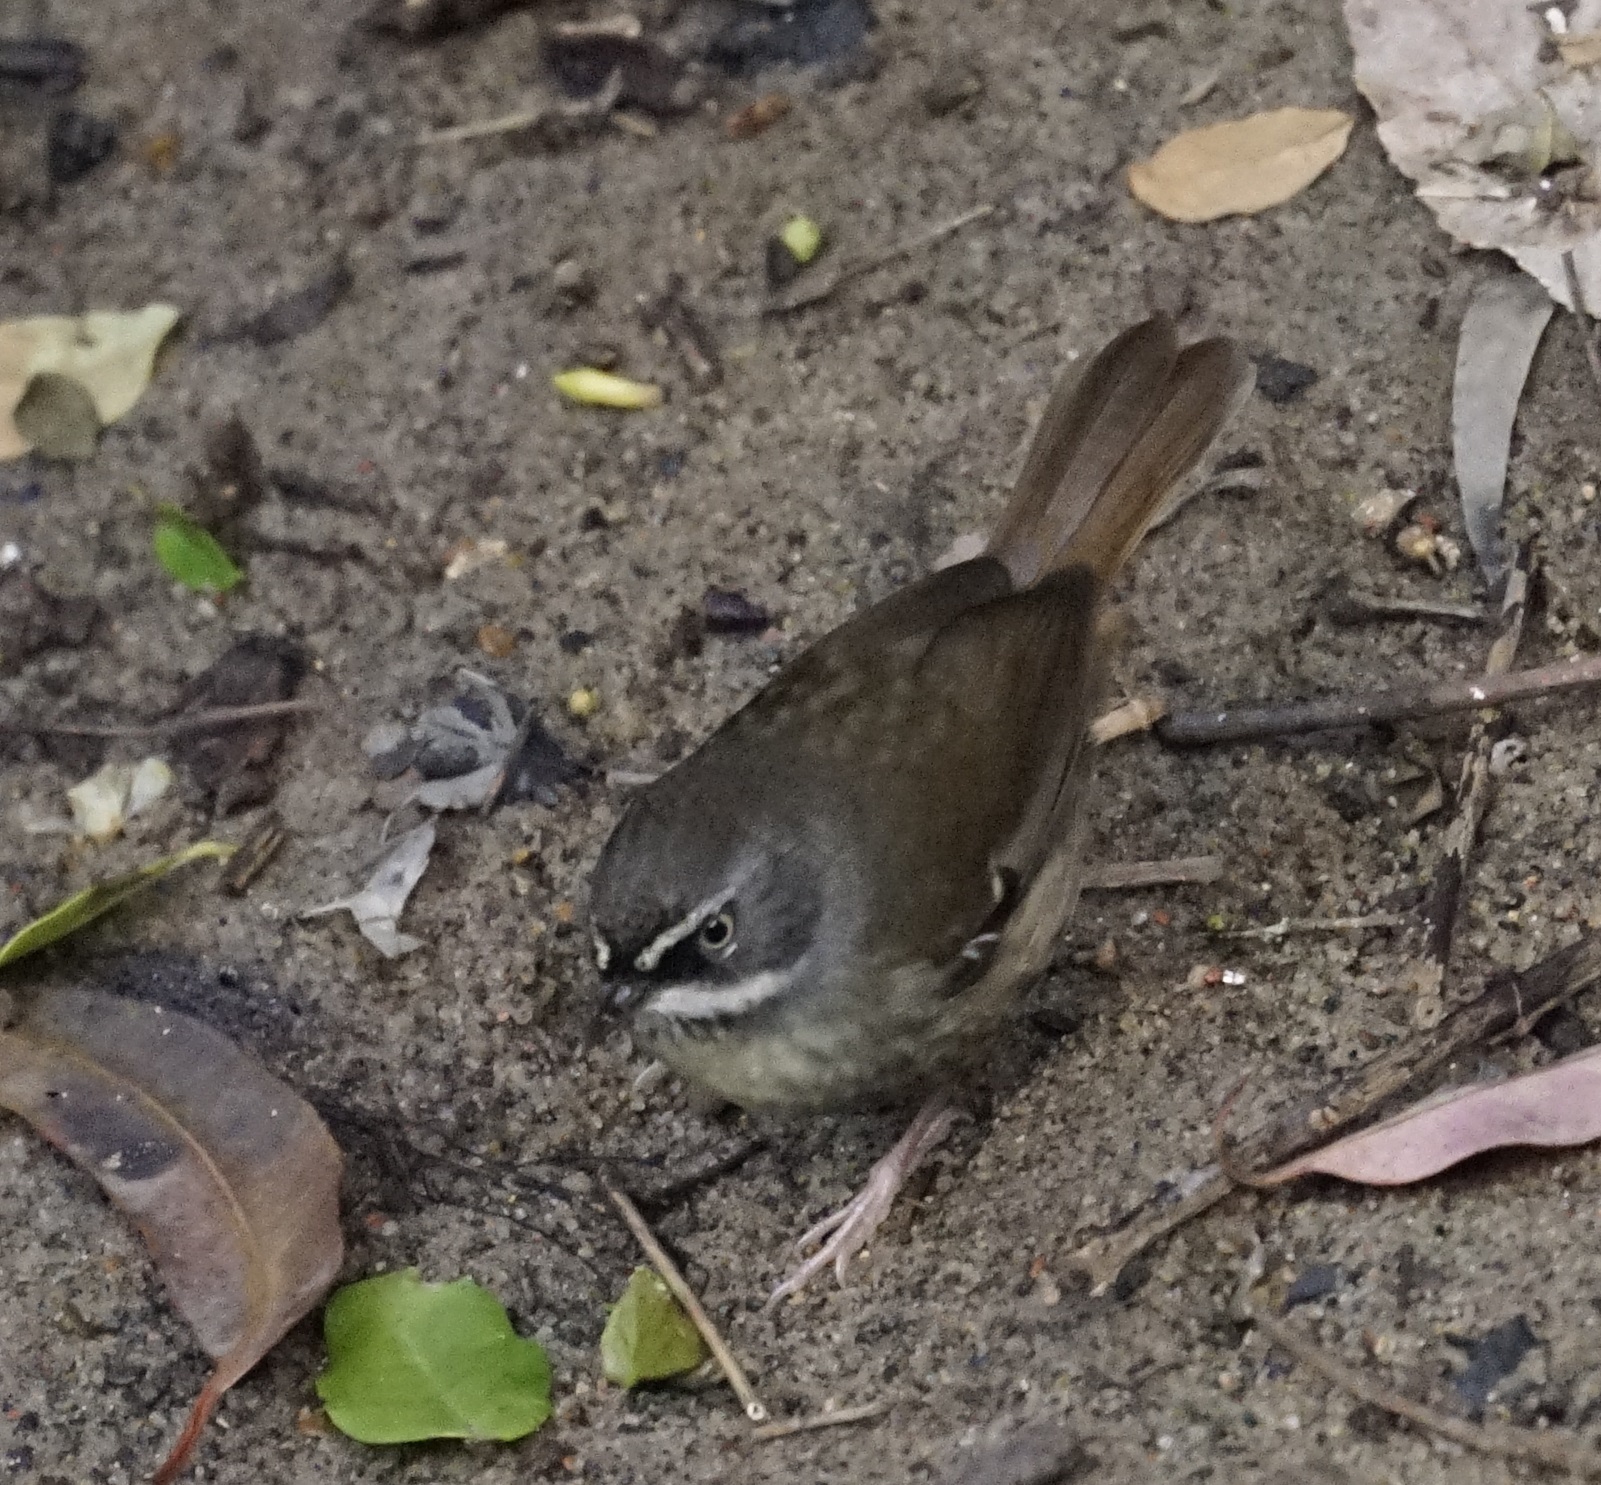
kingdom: Animalia
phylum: Chordata
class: Aves
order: Passeriformes
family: Acanthizidae
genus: Sericornis
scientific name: Sericornis frontalis
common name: White-browed scrubwren
